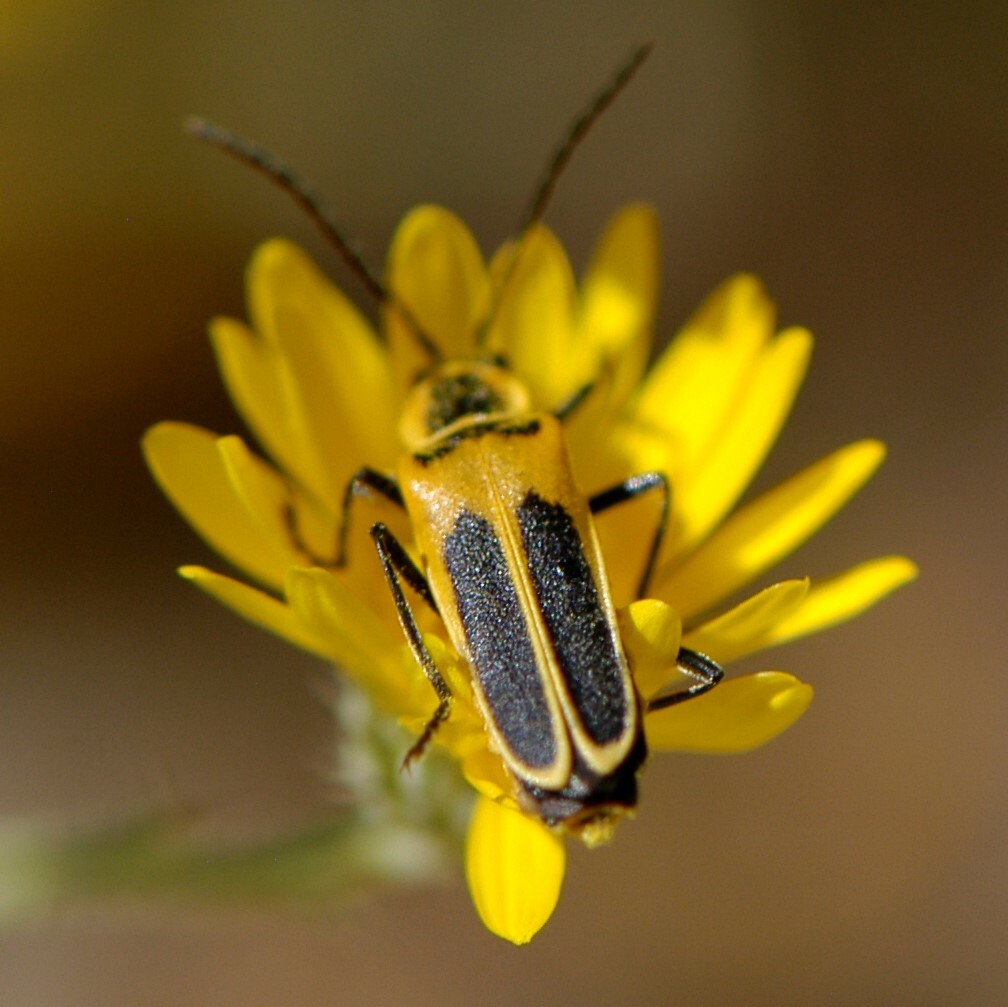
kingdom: Animalia
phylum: Arthropoda
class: Insecta
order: Coleoptera
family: Cantharidae
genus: Chauliognathus
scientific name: Chauliognathus lewisi
